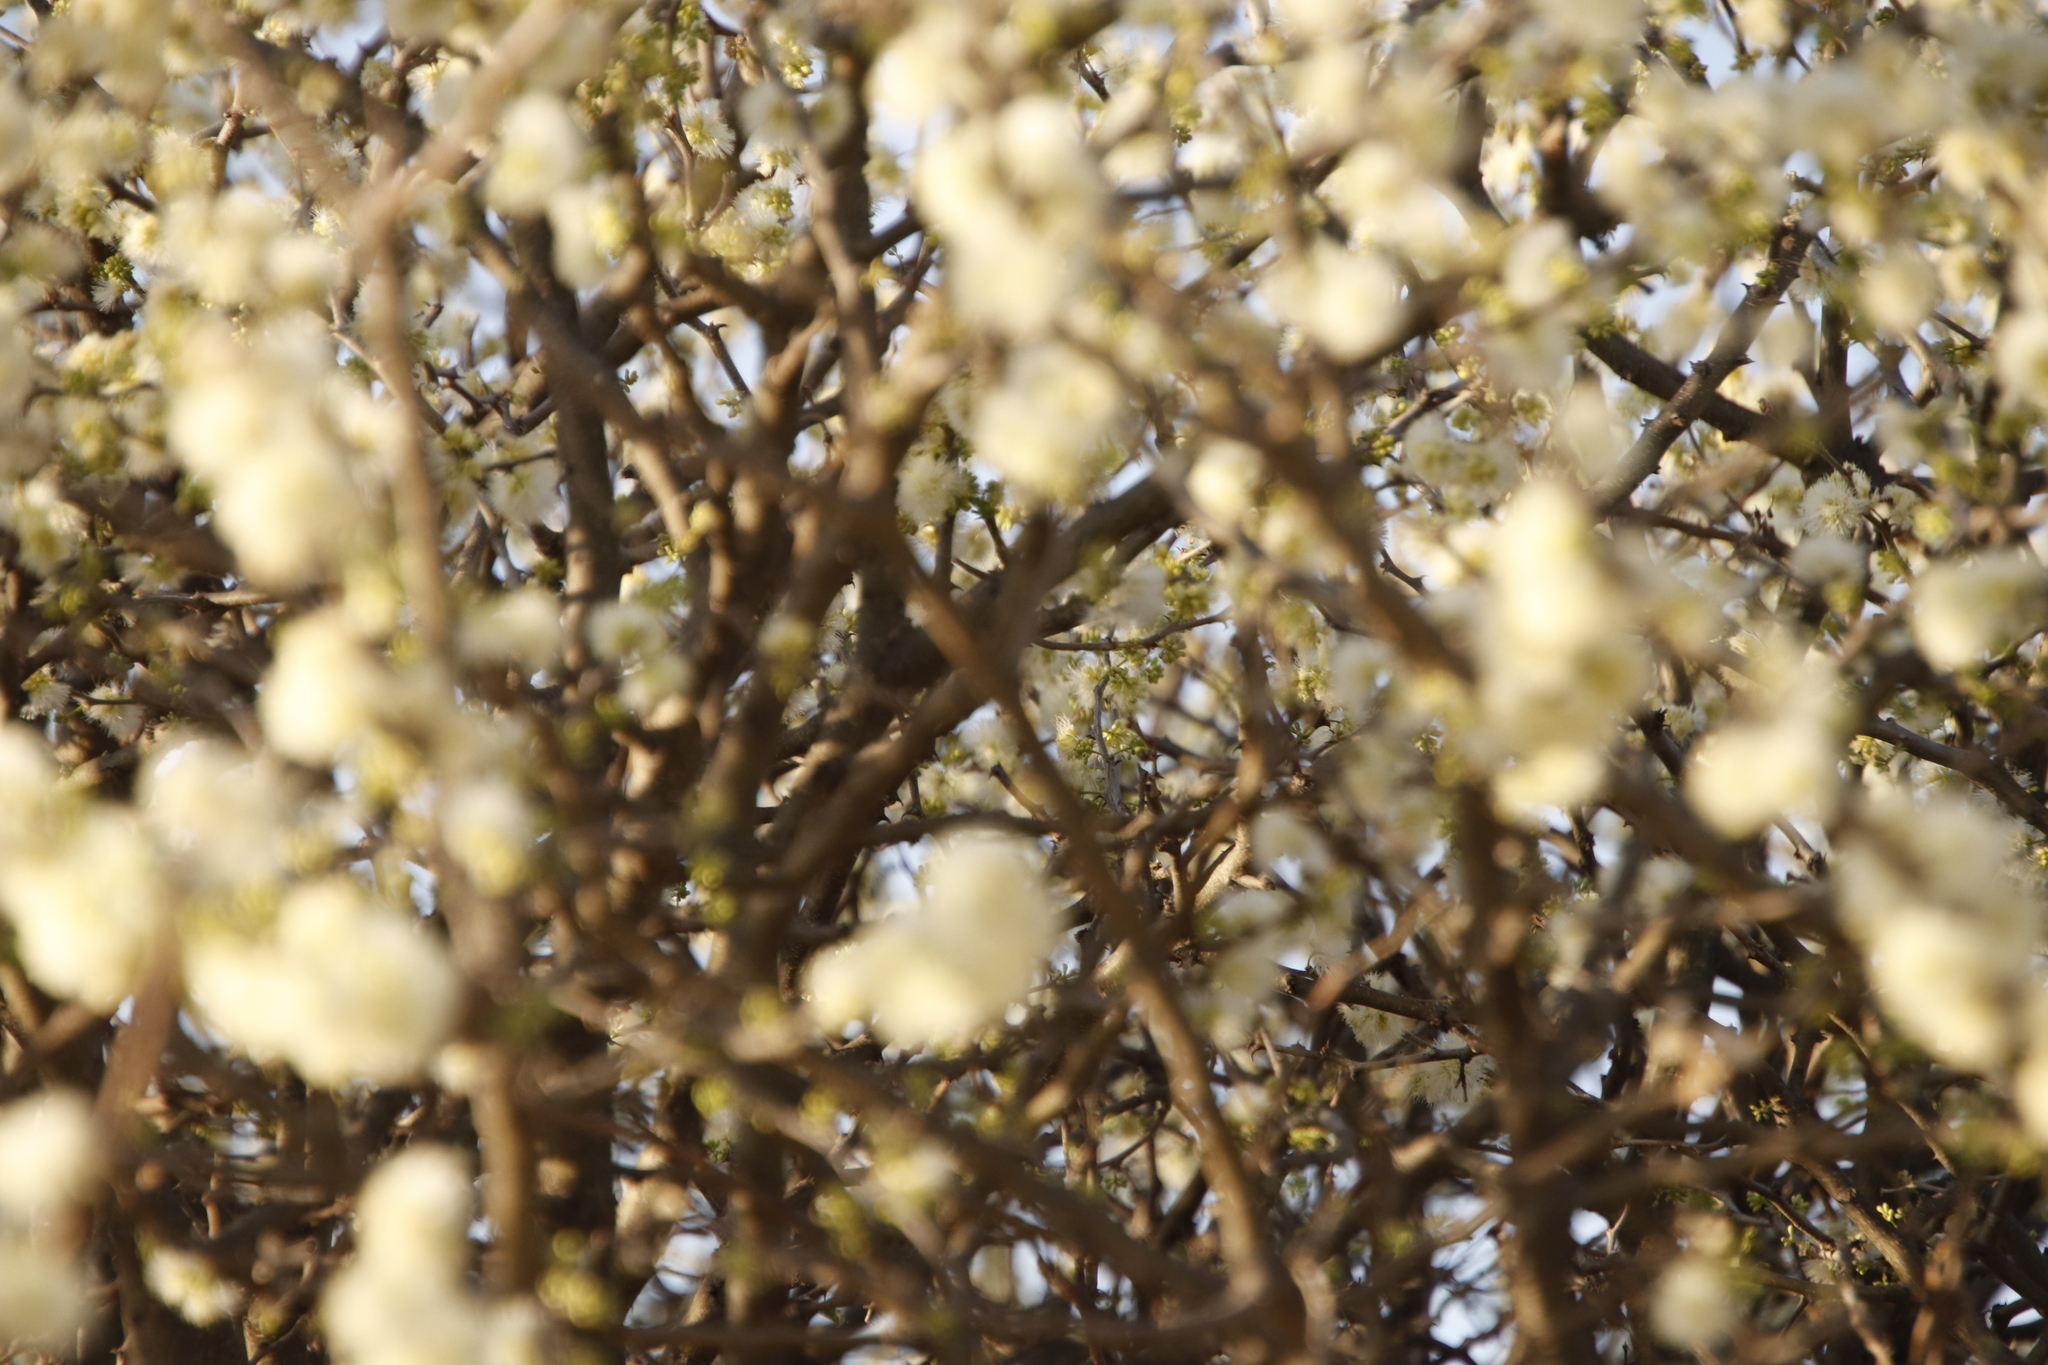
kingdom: Plantae
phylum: Tracheophyta
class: Magnoliopsida
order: Fabales
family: Fabaceae
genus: Senegalia
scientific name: Senegalia mellifera
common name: Hookthorn
